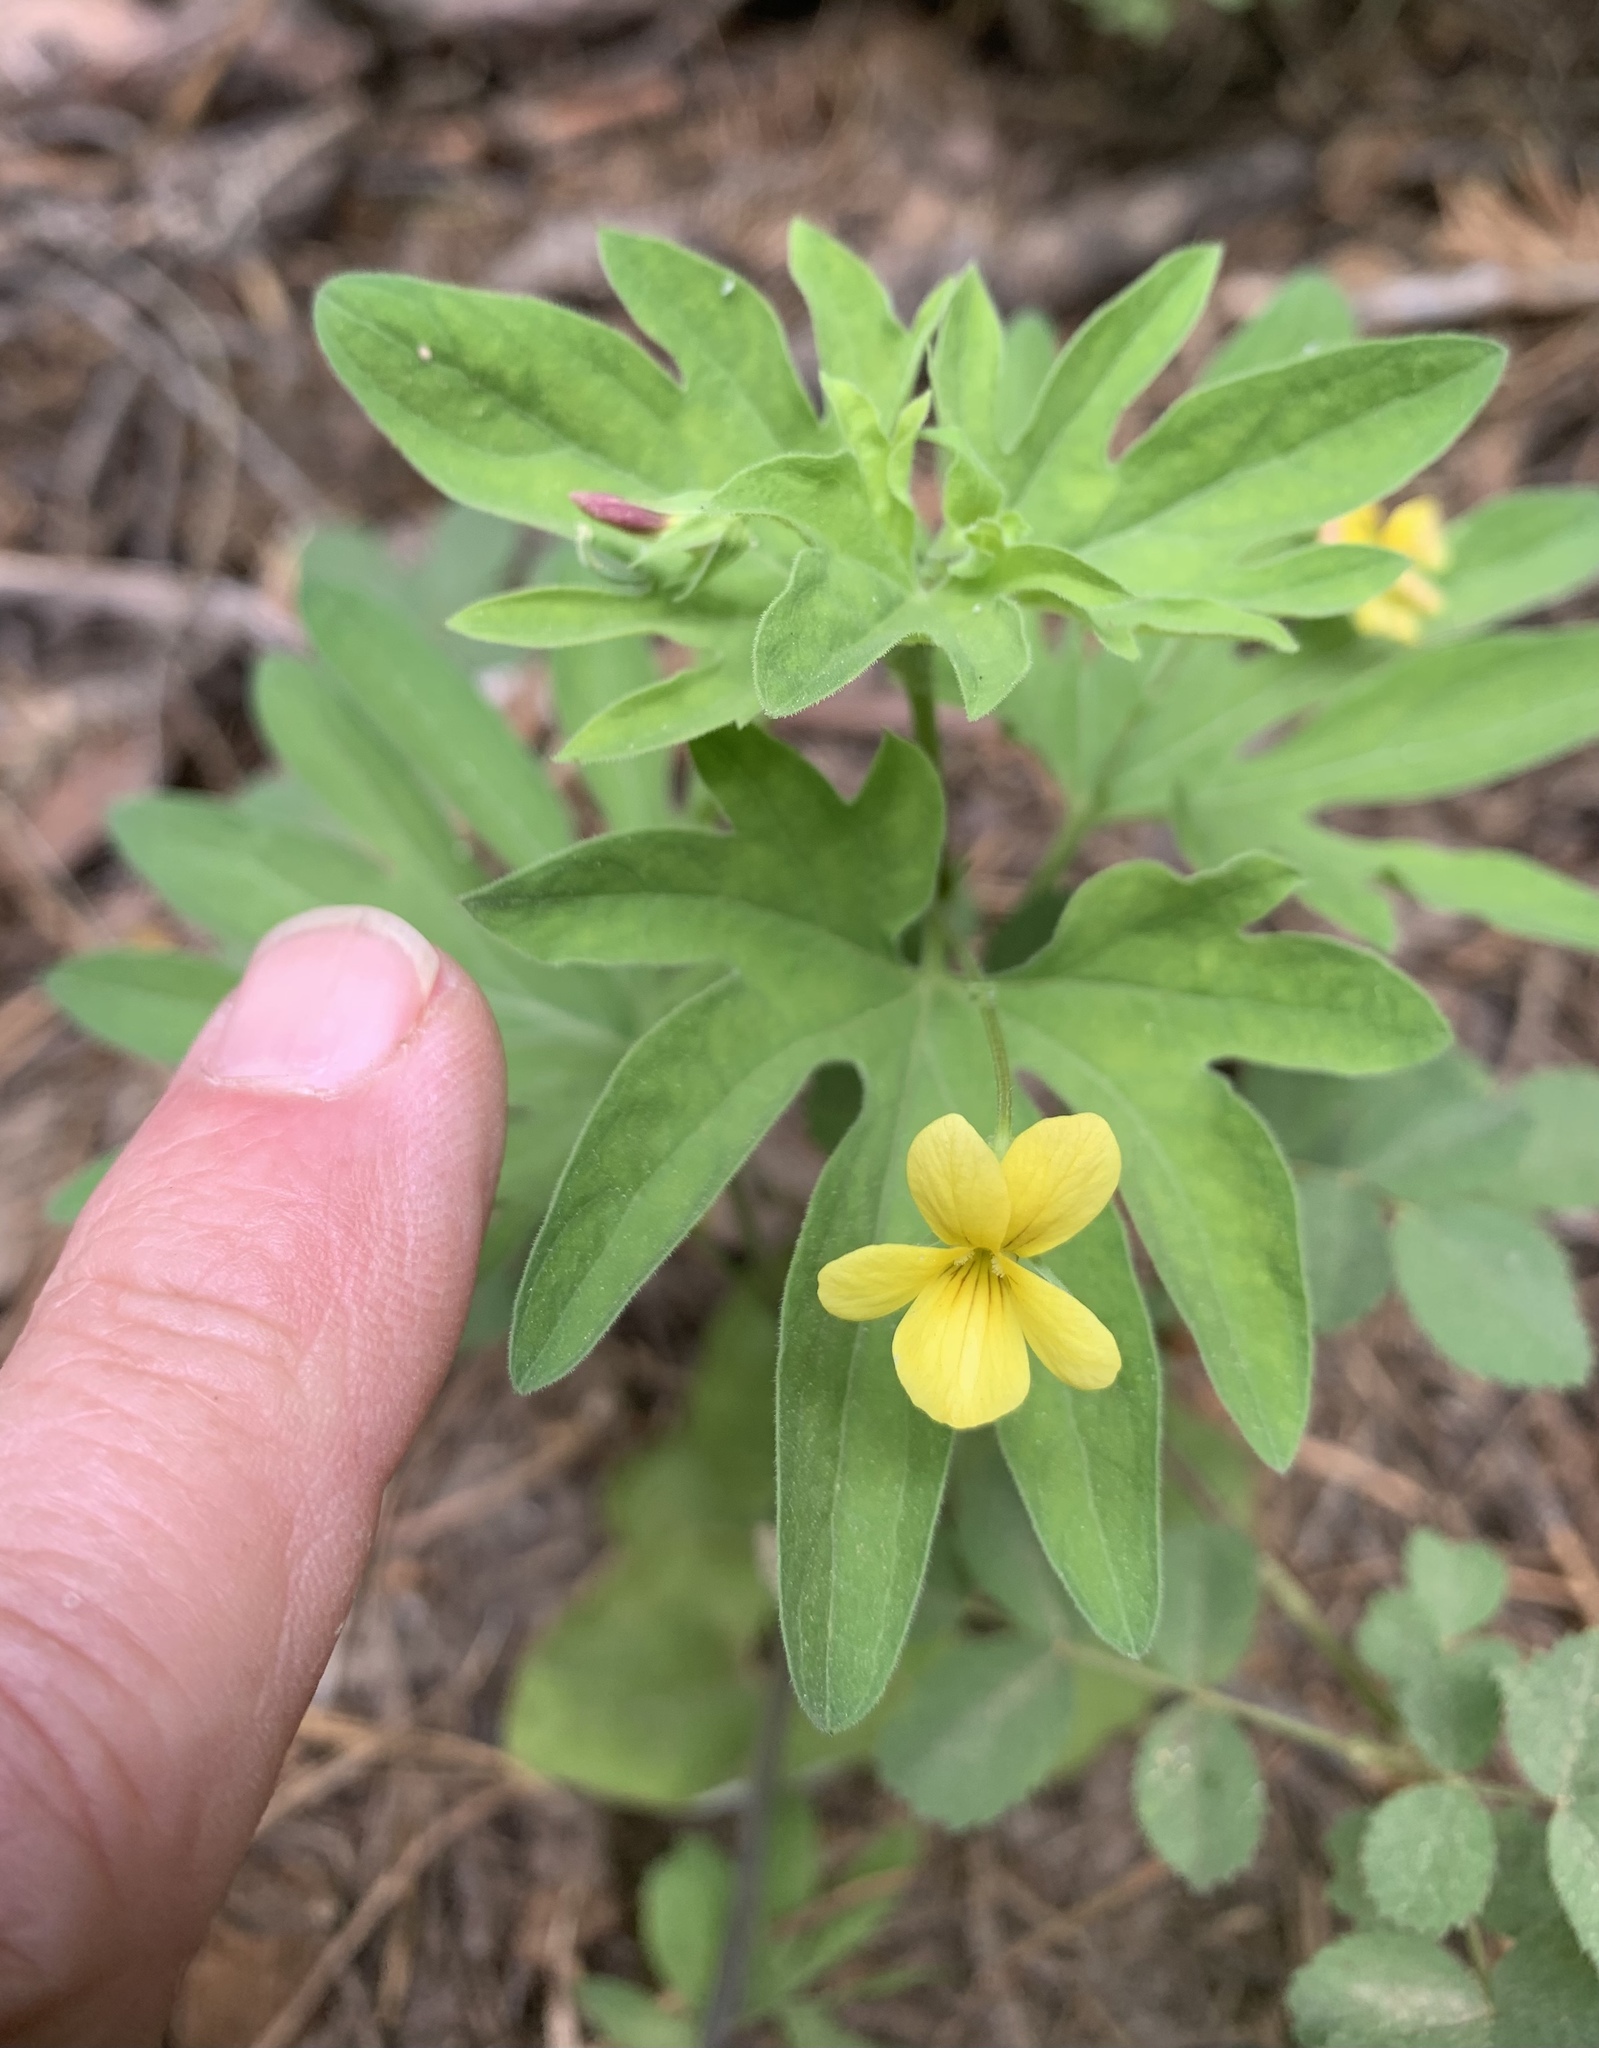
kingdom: Plantae
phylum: Tracheophyta
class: Magnoliopsida
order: Malpighiales
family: Violaceae
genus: Viola
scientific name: Viola lobata
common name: Pine violet
